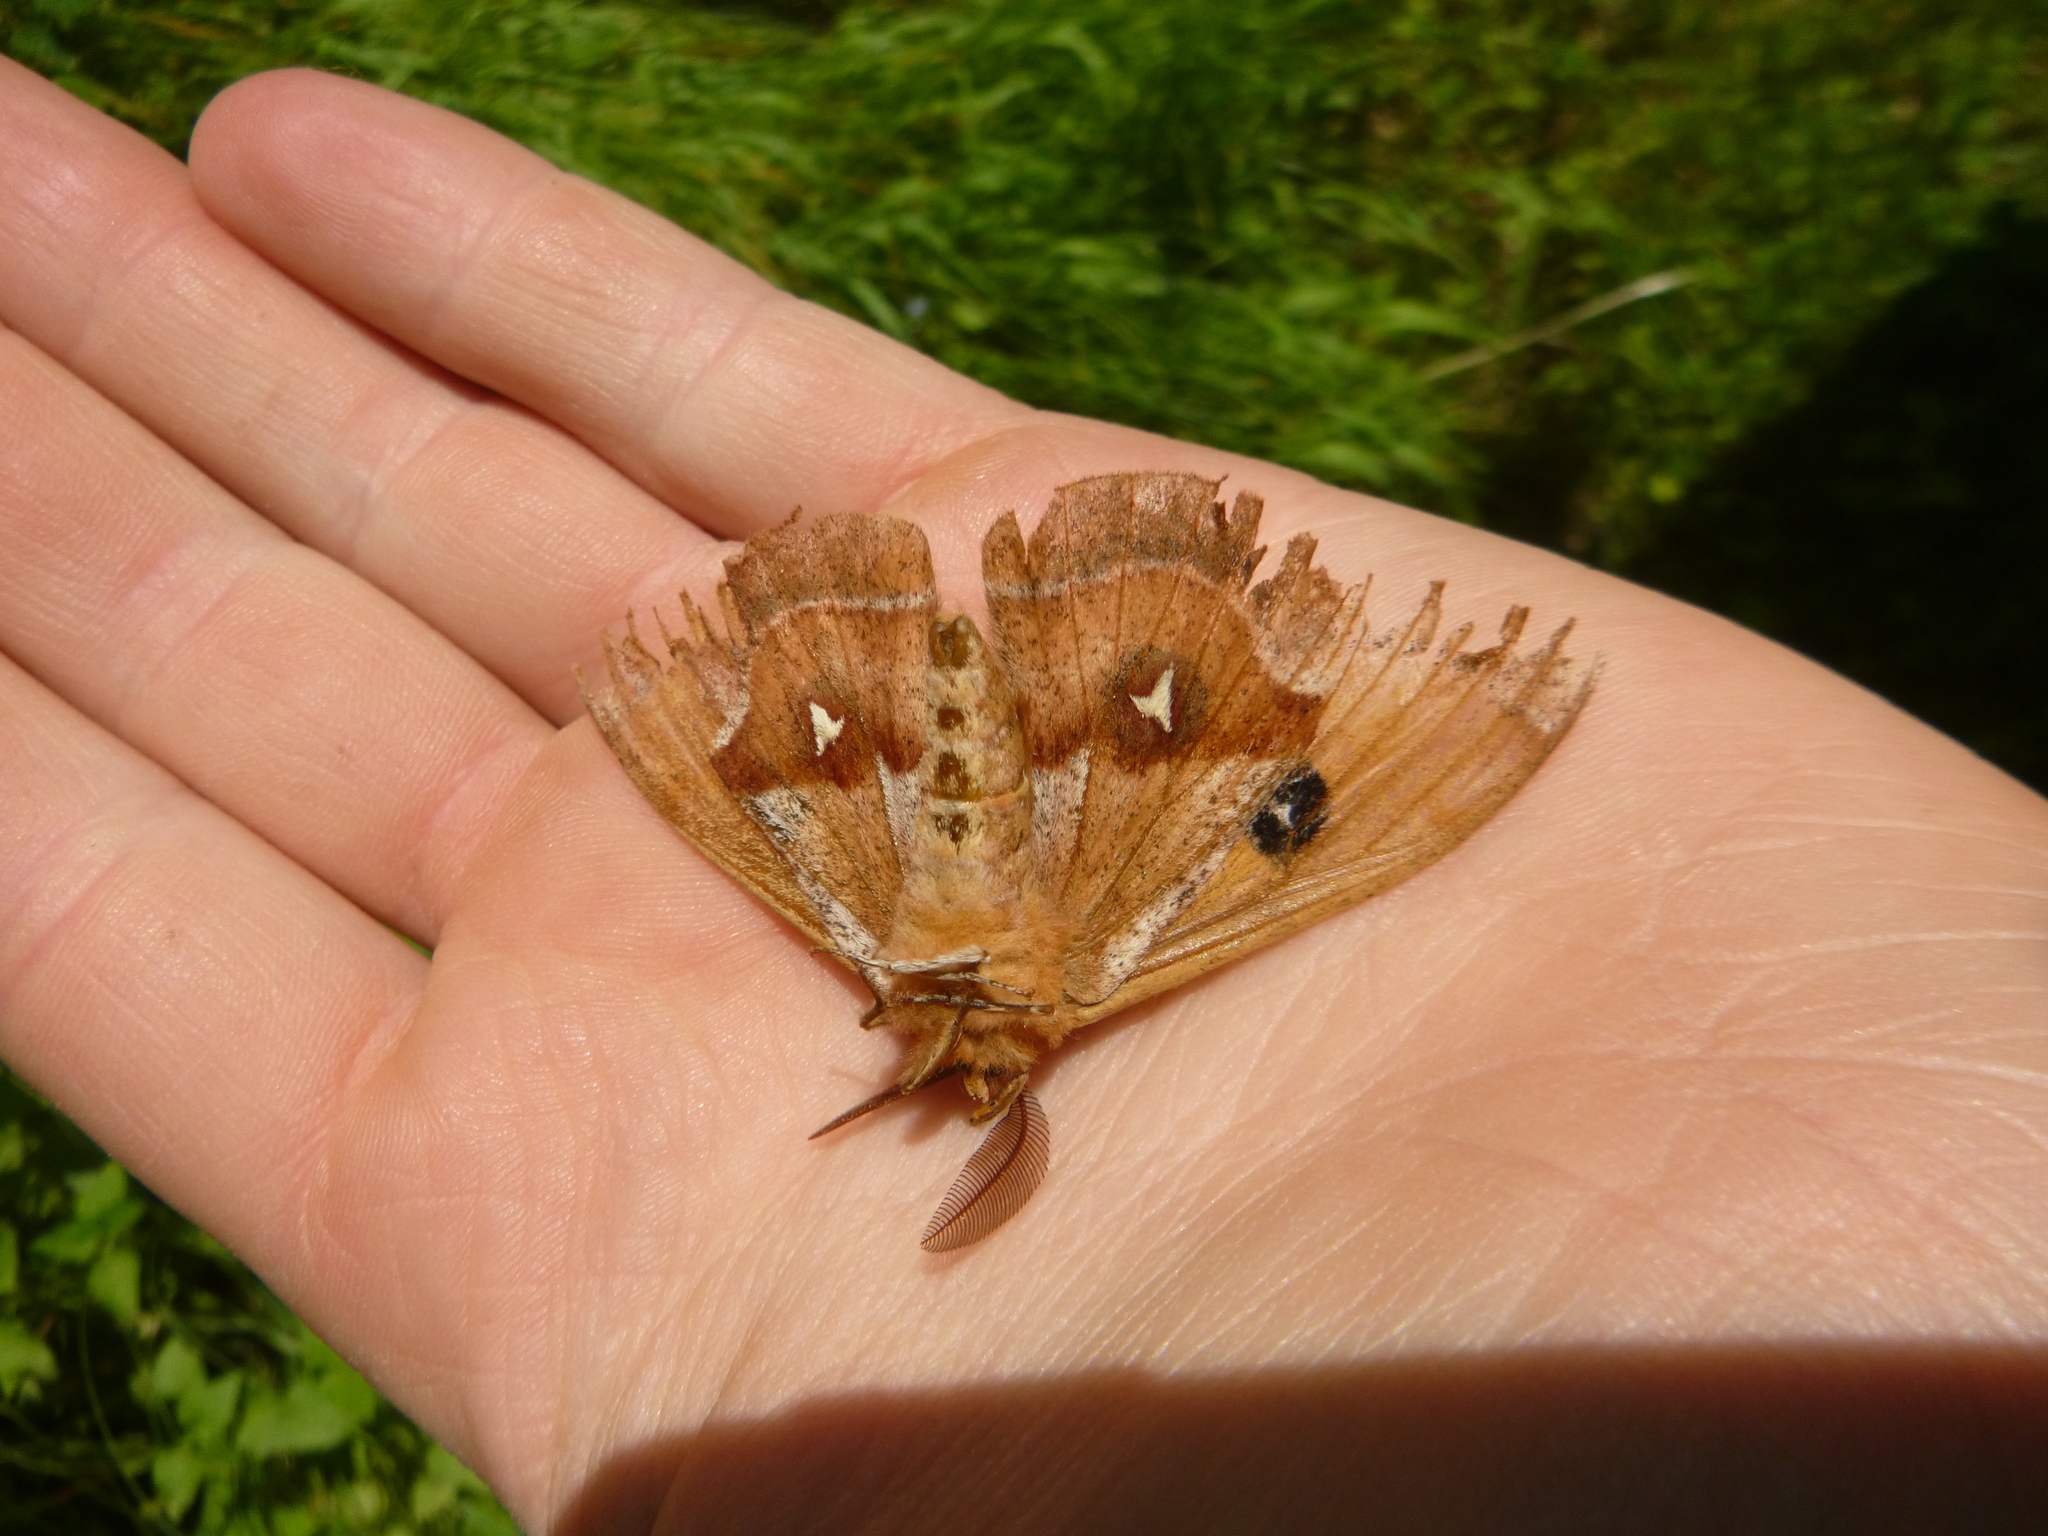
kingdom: Animalia
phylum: Arthropoda
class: Insecta
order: Lepidoptera
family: Saturniidae
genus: Aglia
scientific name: Aglia tau
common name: Tau emperor
